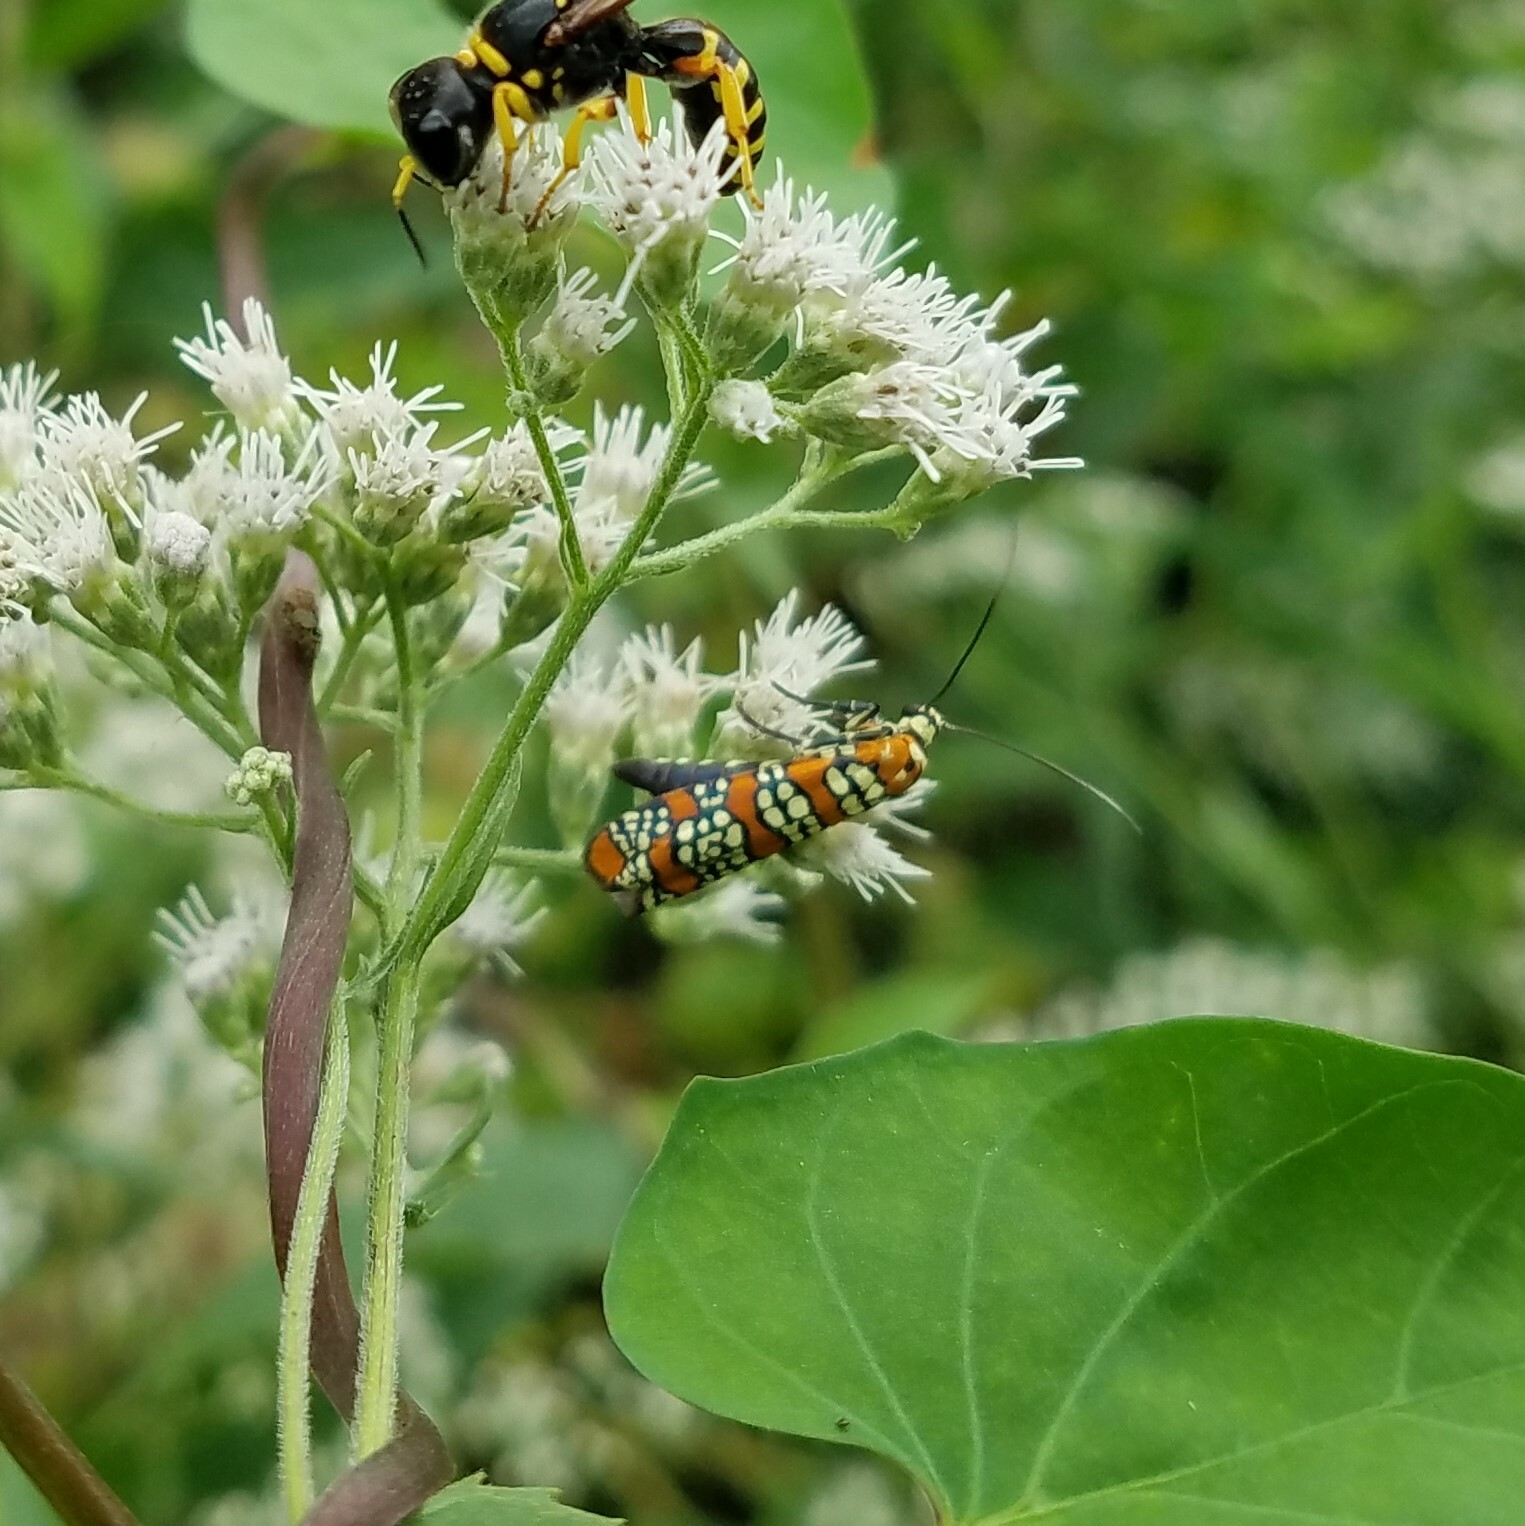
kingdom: Animalia
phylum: Arthropoda
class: Insecta
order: Lepidoptera
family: Attevidae
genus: Atteva
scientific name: Atteva punctella
